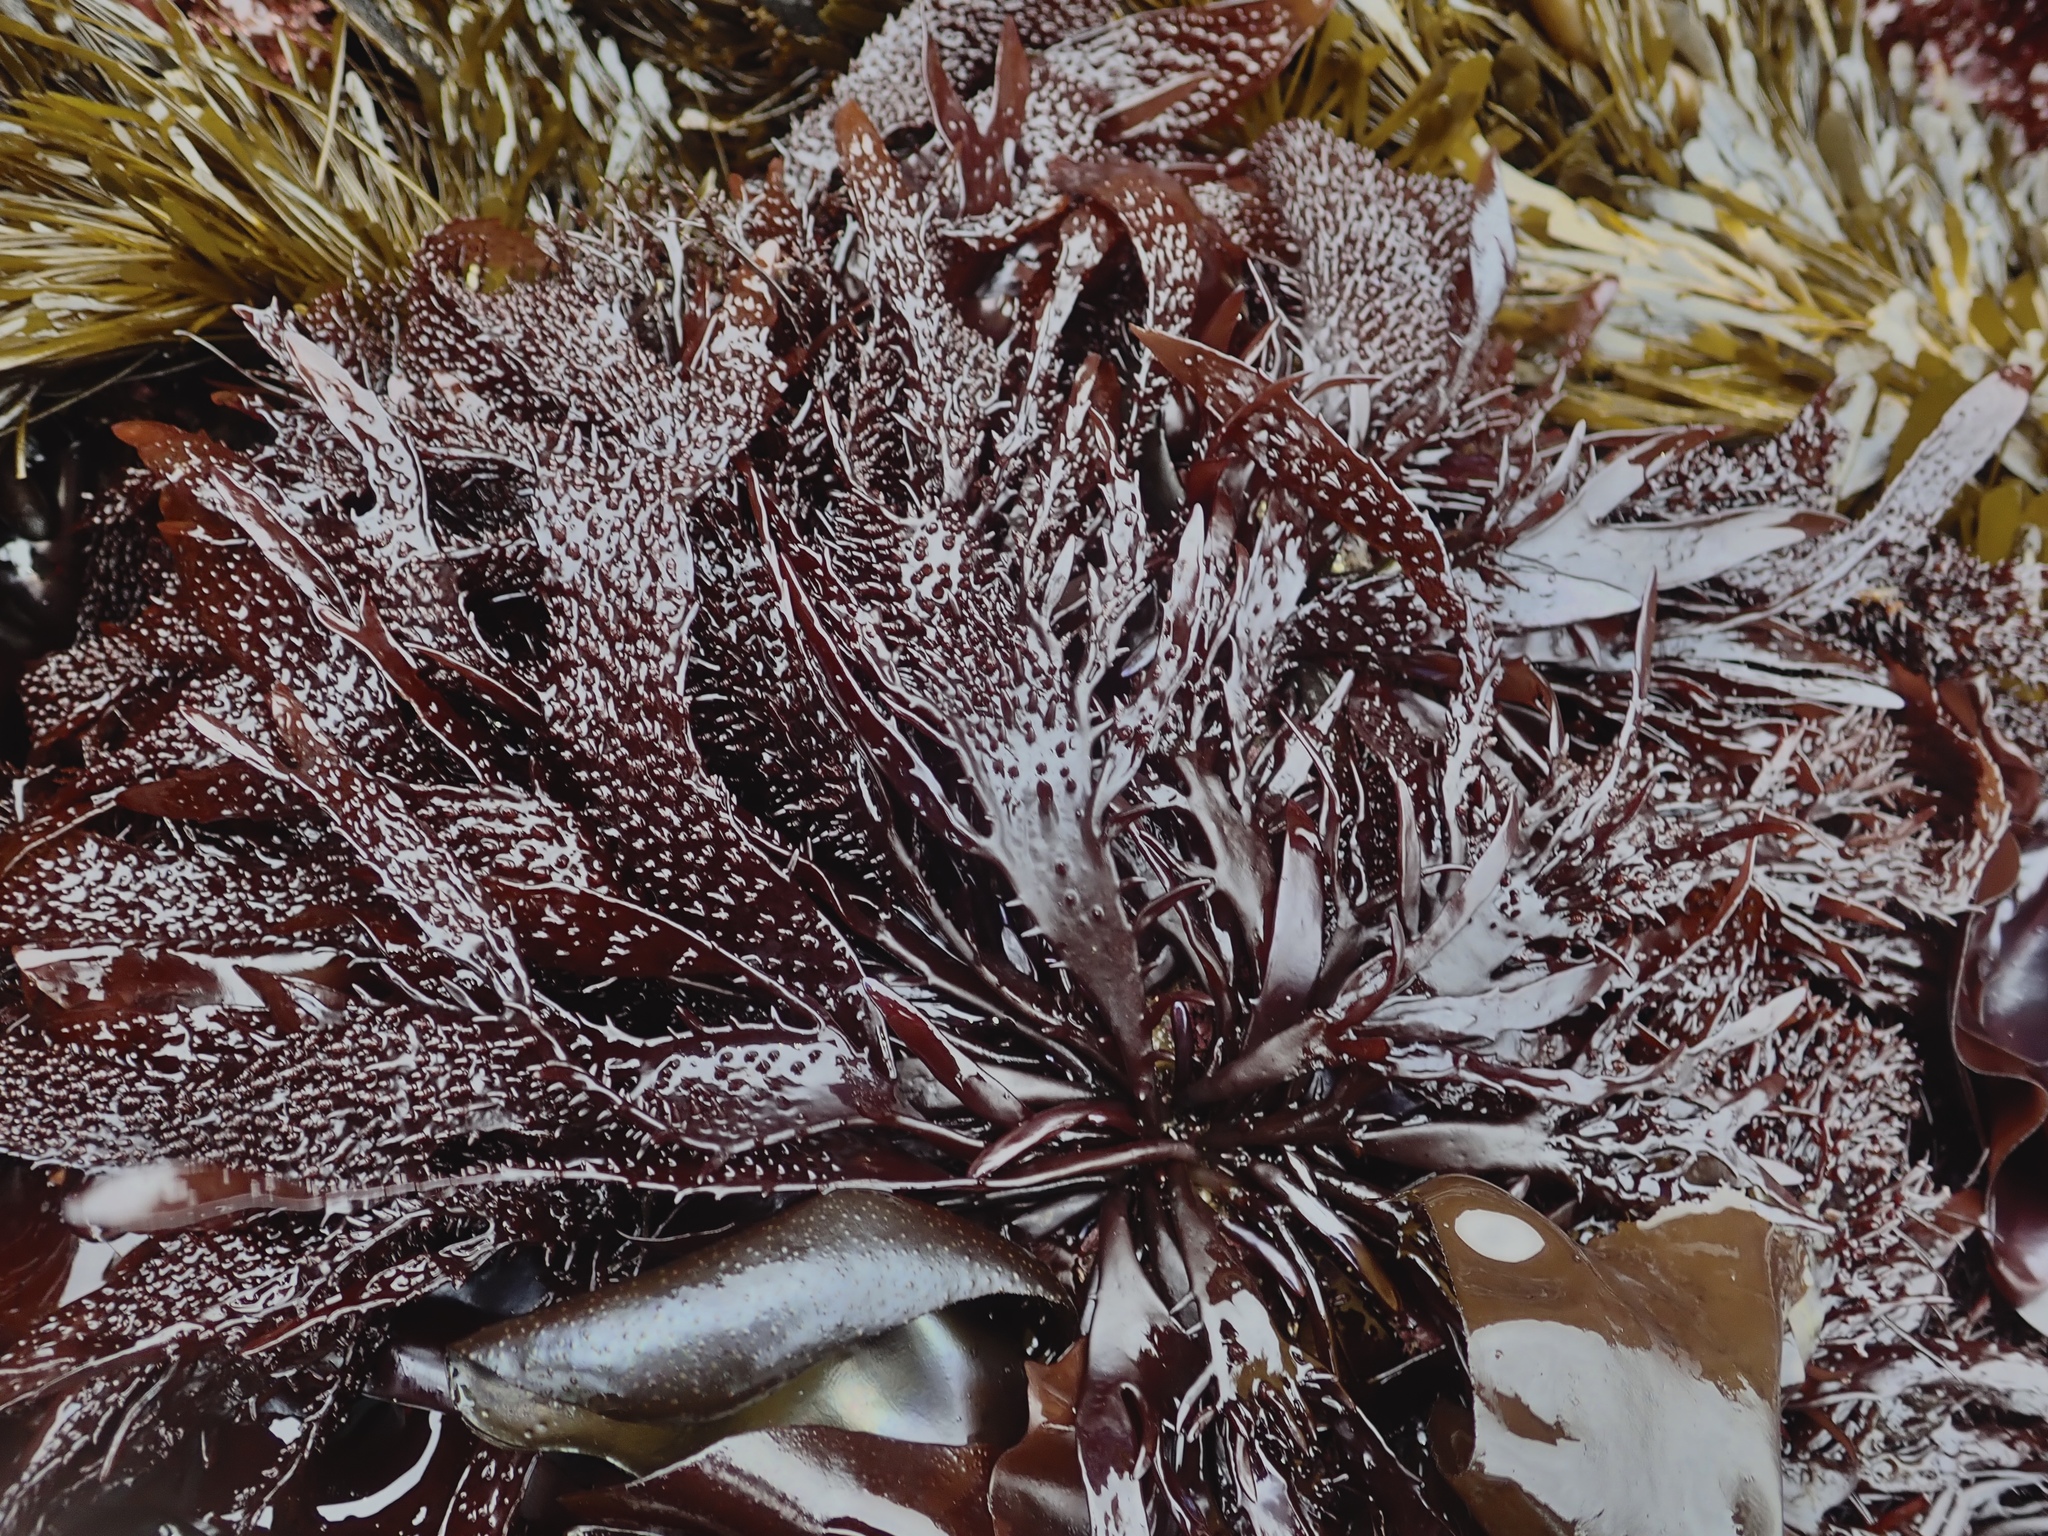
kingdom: Plantae
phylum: Rhodophyta
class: Florideophyceae
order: Gigartinales
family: Phyllophoraceae
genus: Mastocarpus
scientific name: Mastocarpus papillatus
